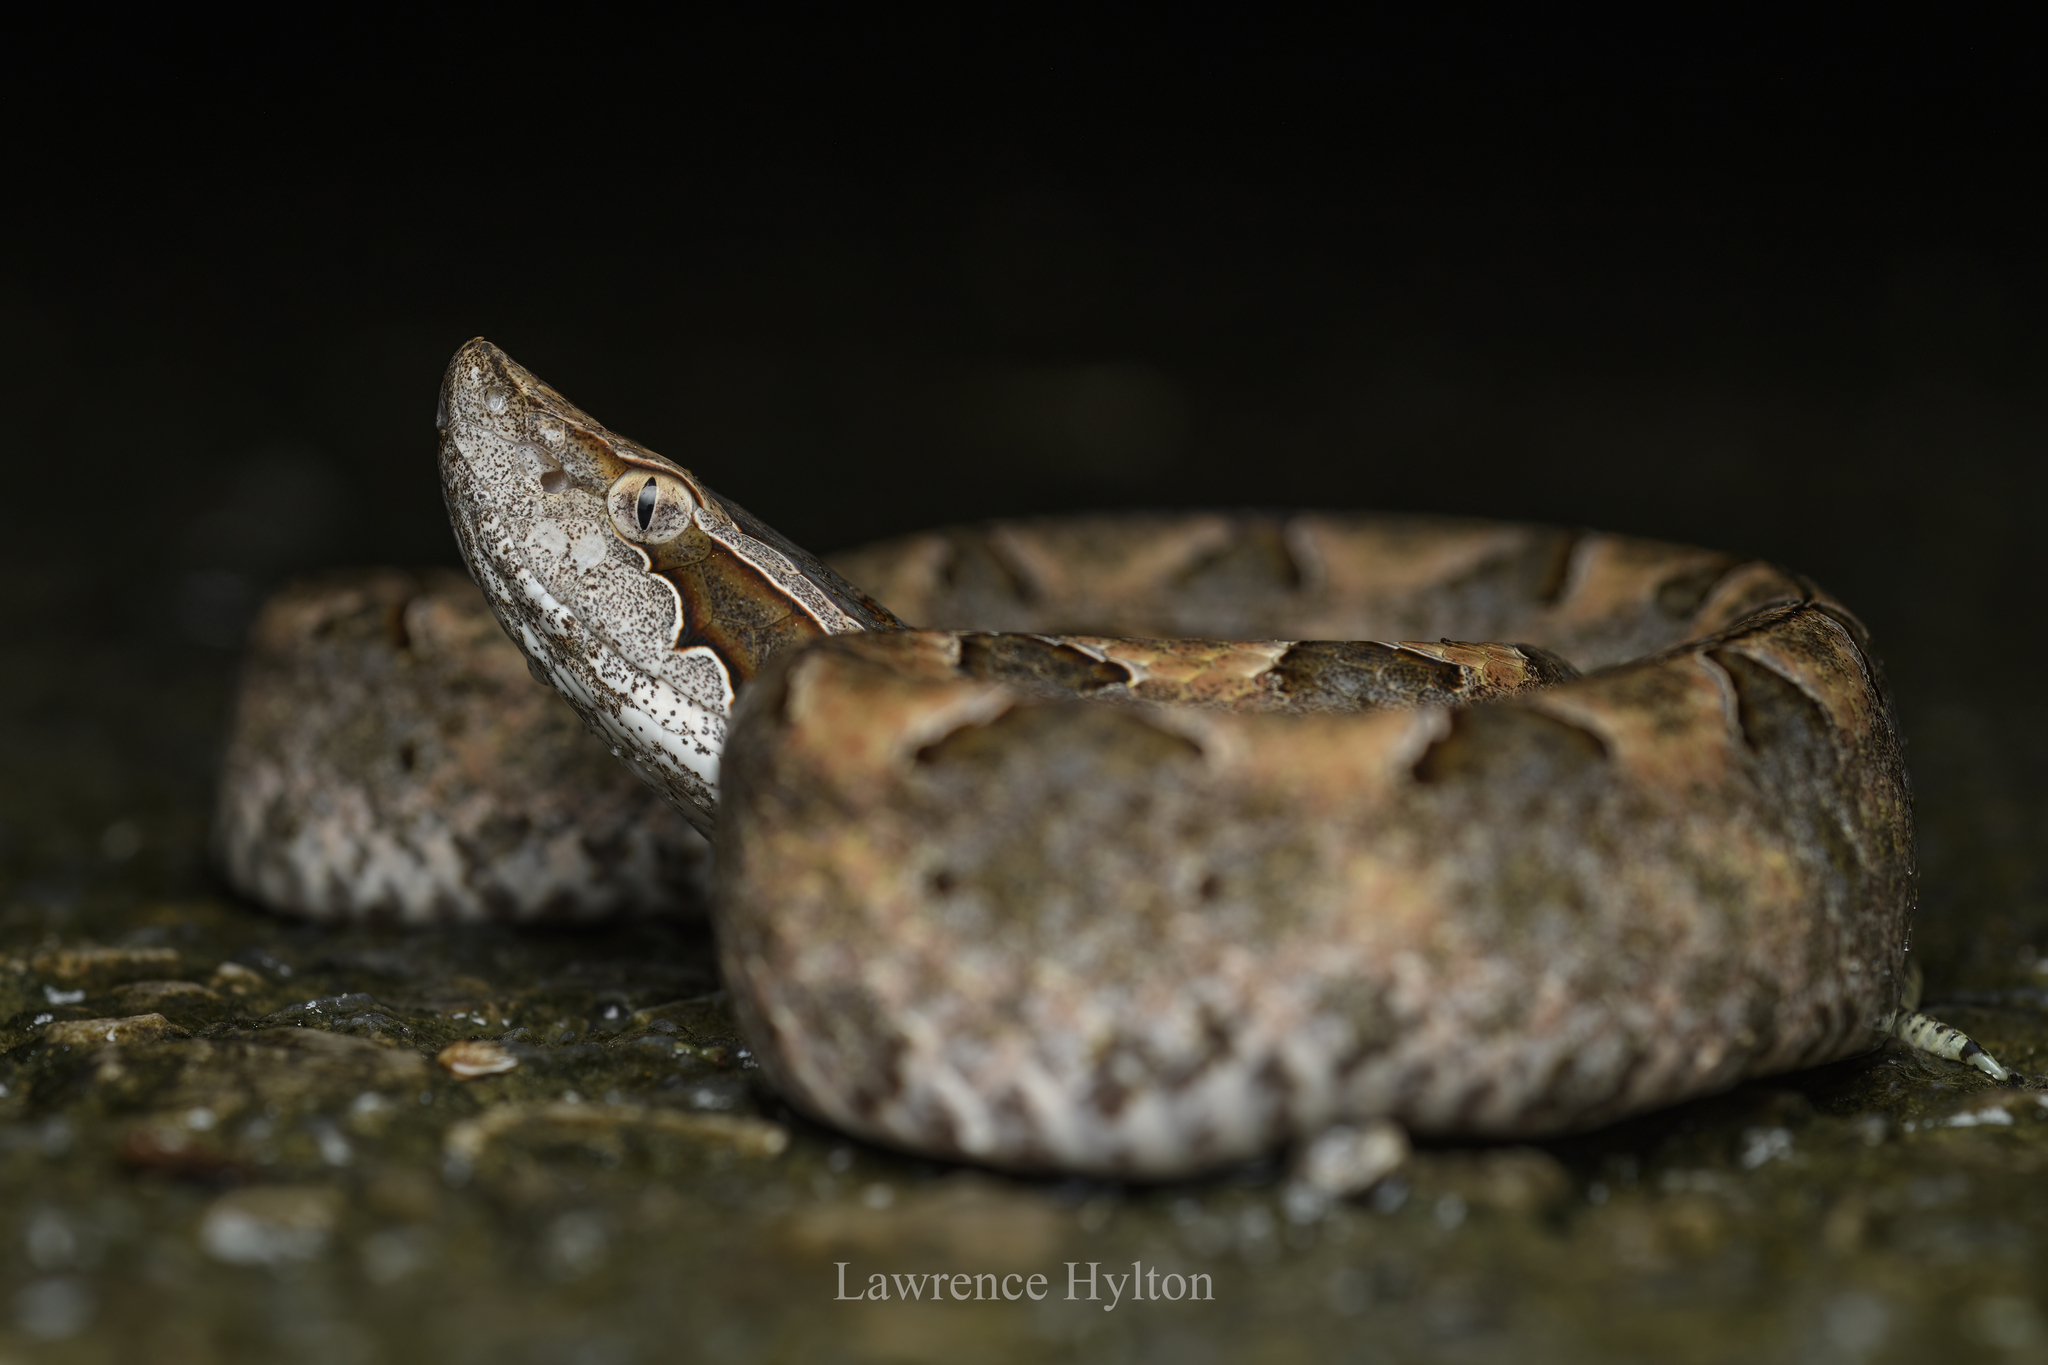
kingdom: Animalia
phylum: Chordata
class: Squamata
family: Viperidae
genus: Calloselasma
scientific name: Calloselasma rhodostoma
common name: Malayan pit viper
